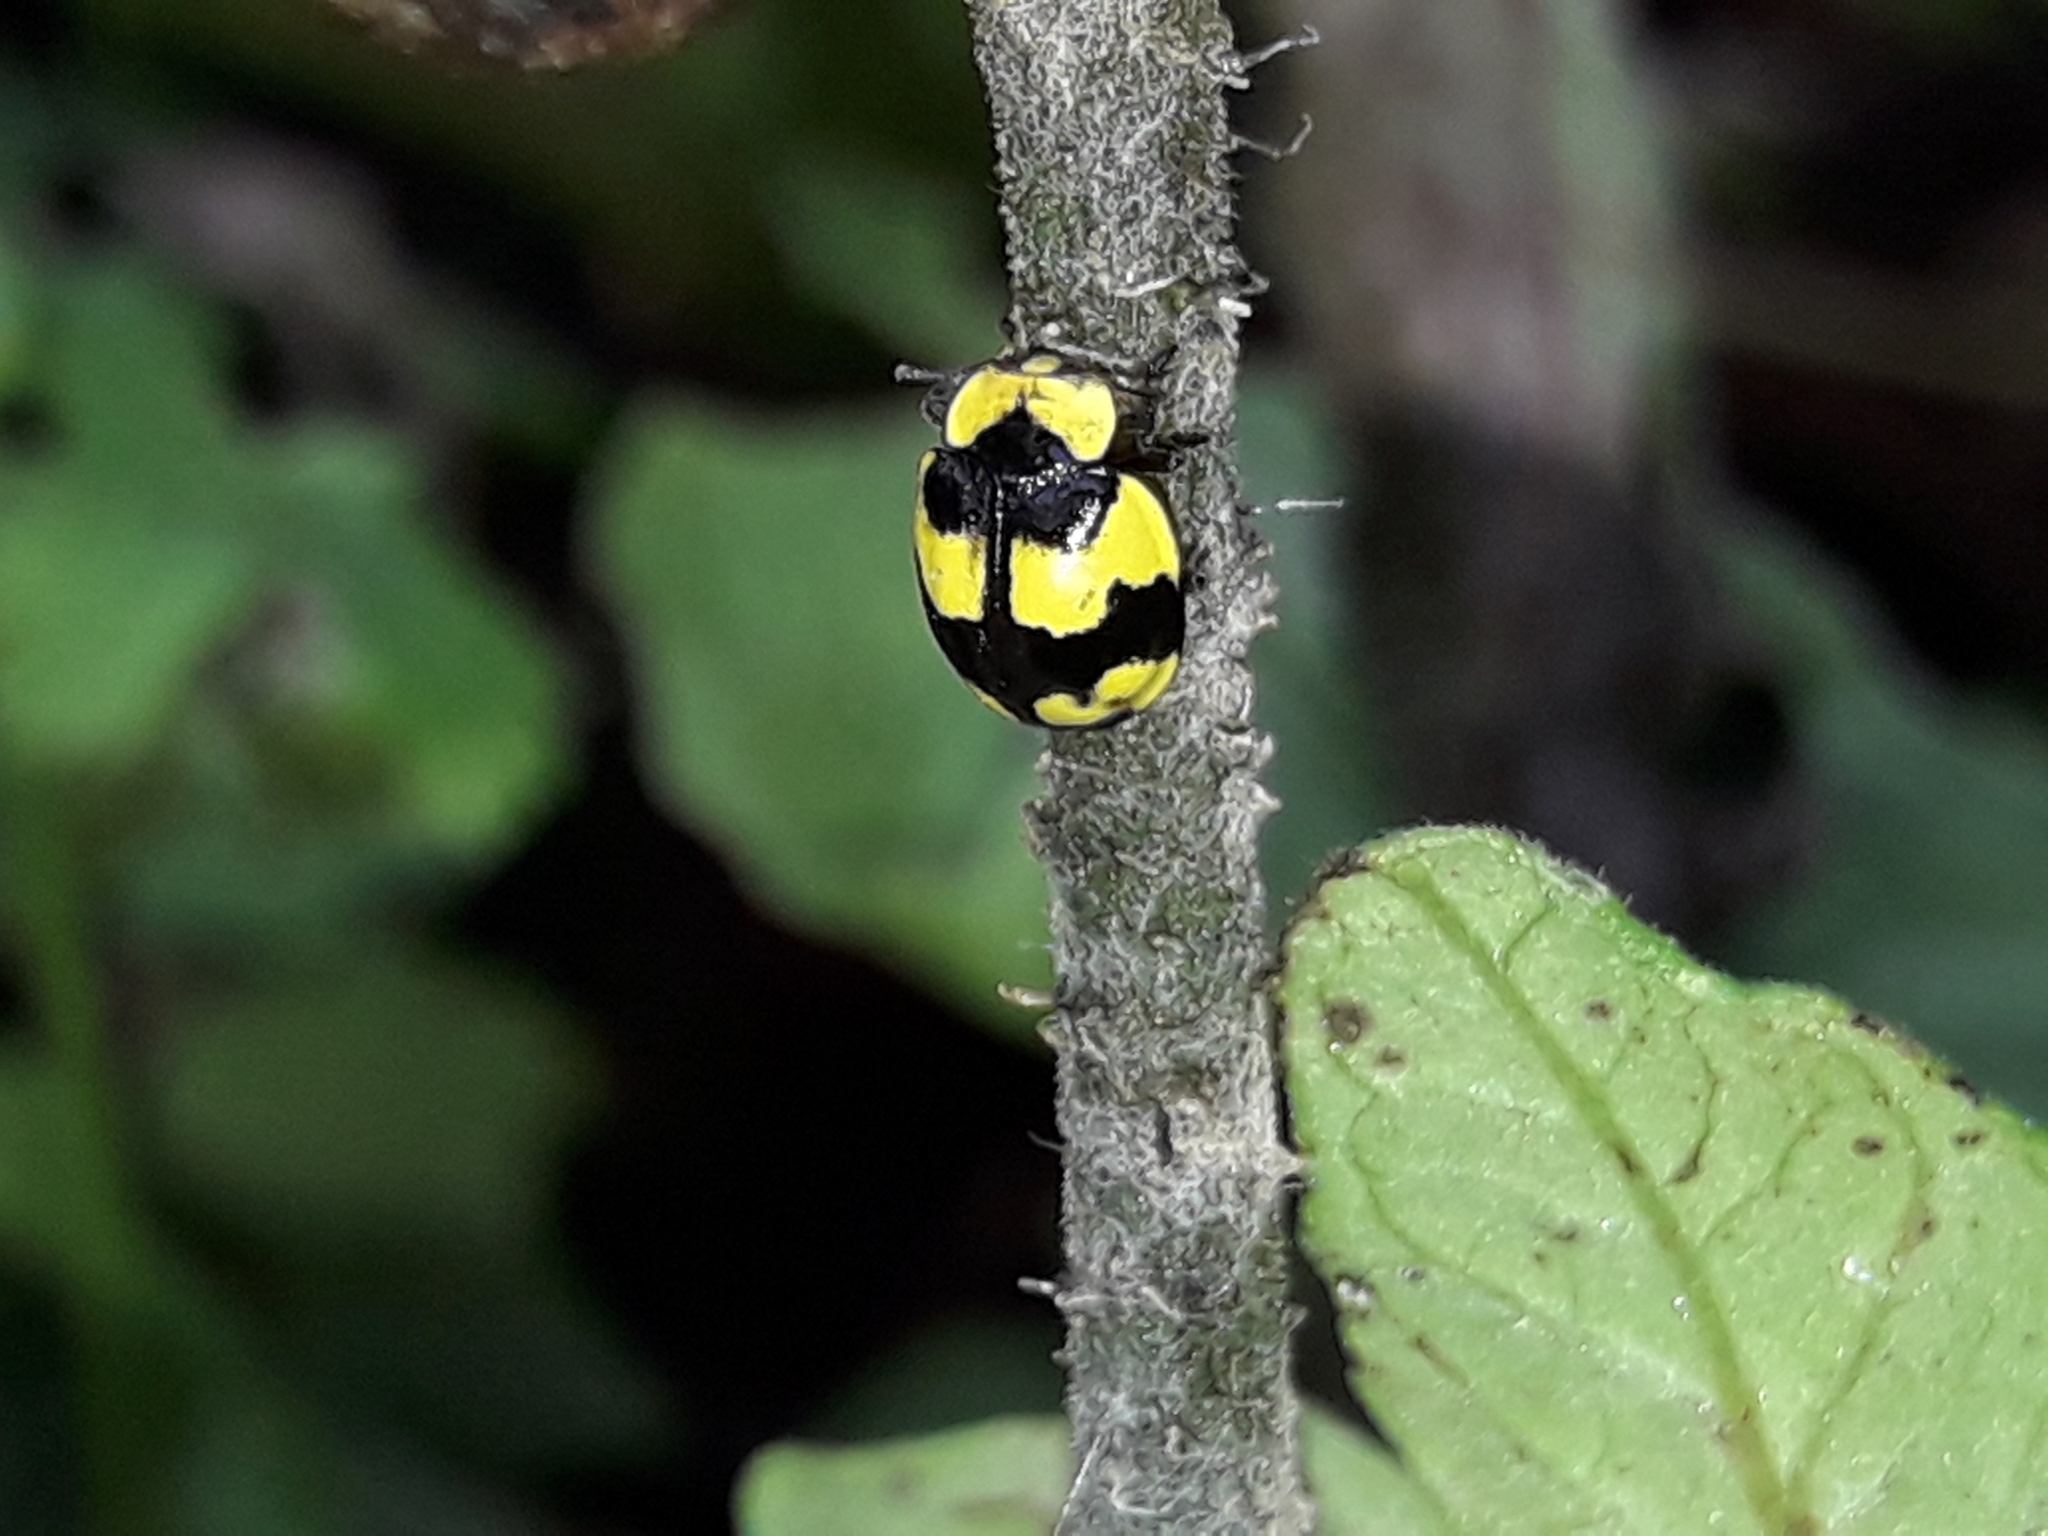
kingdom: Animalia
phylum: Arthropoda
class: Insecta
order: Coleoptera
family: Coccinellidae
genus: Illeis
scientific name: Illeis galbula
